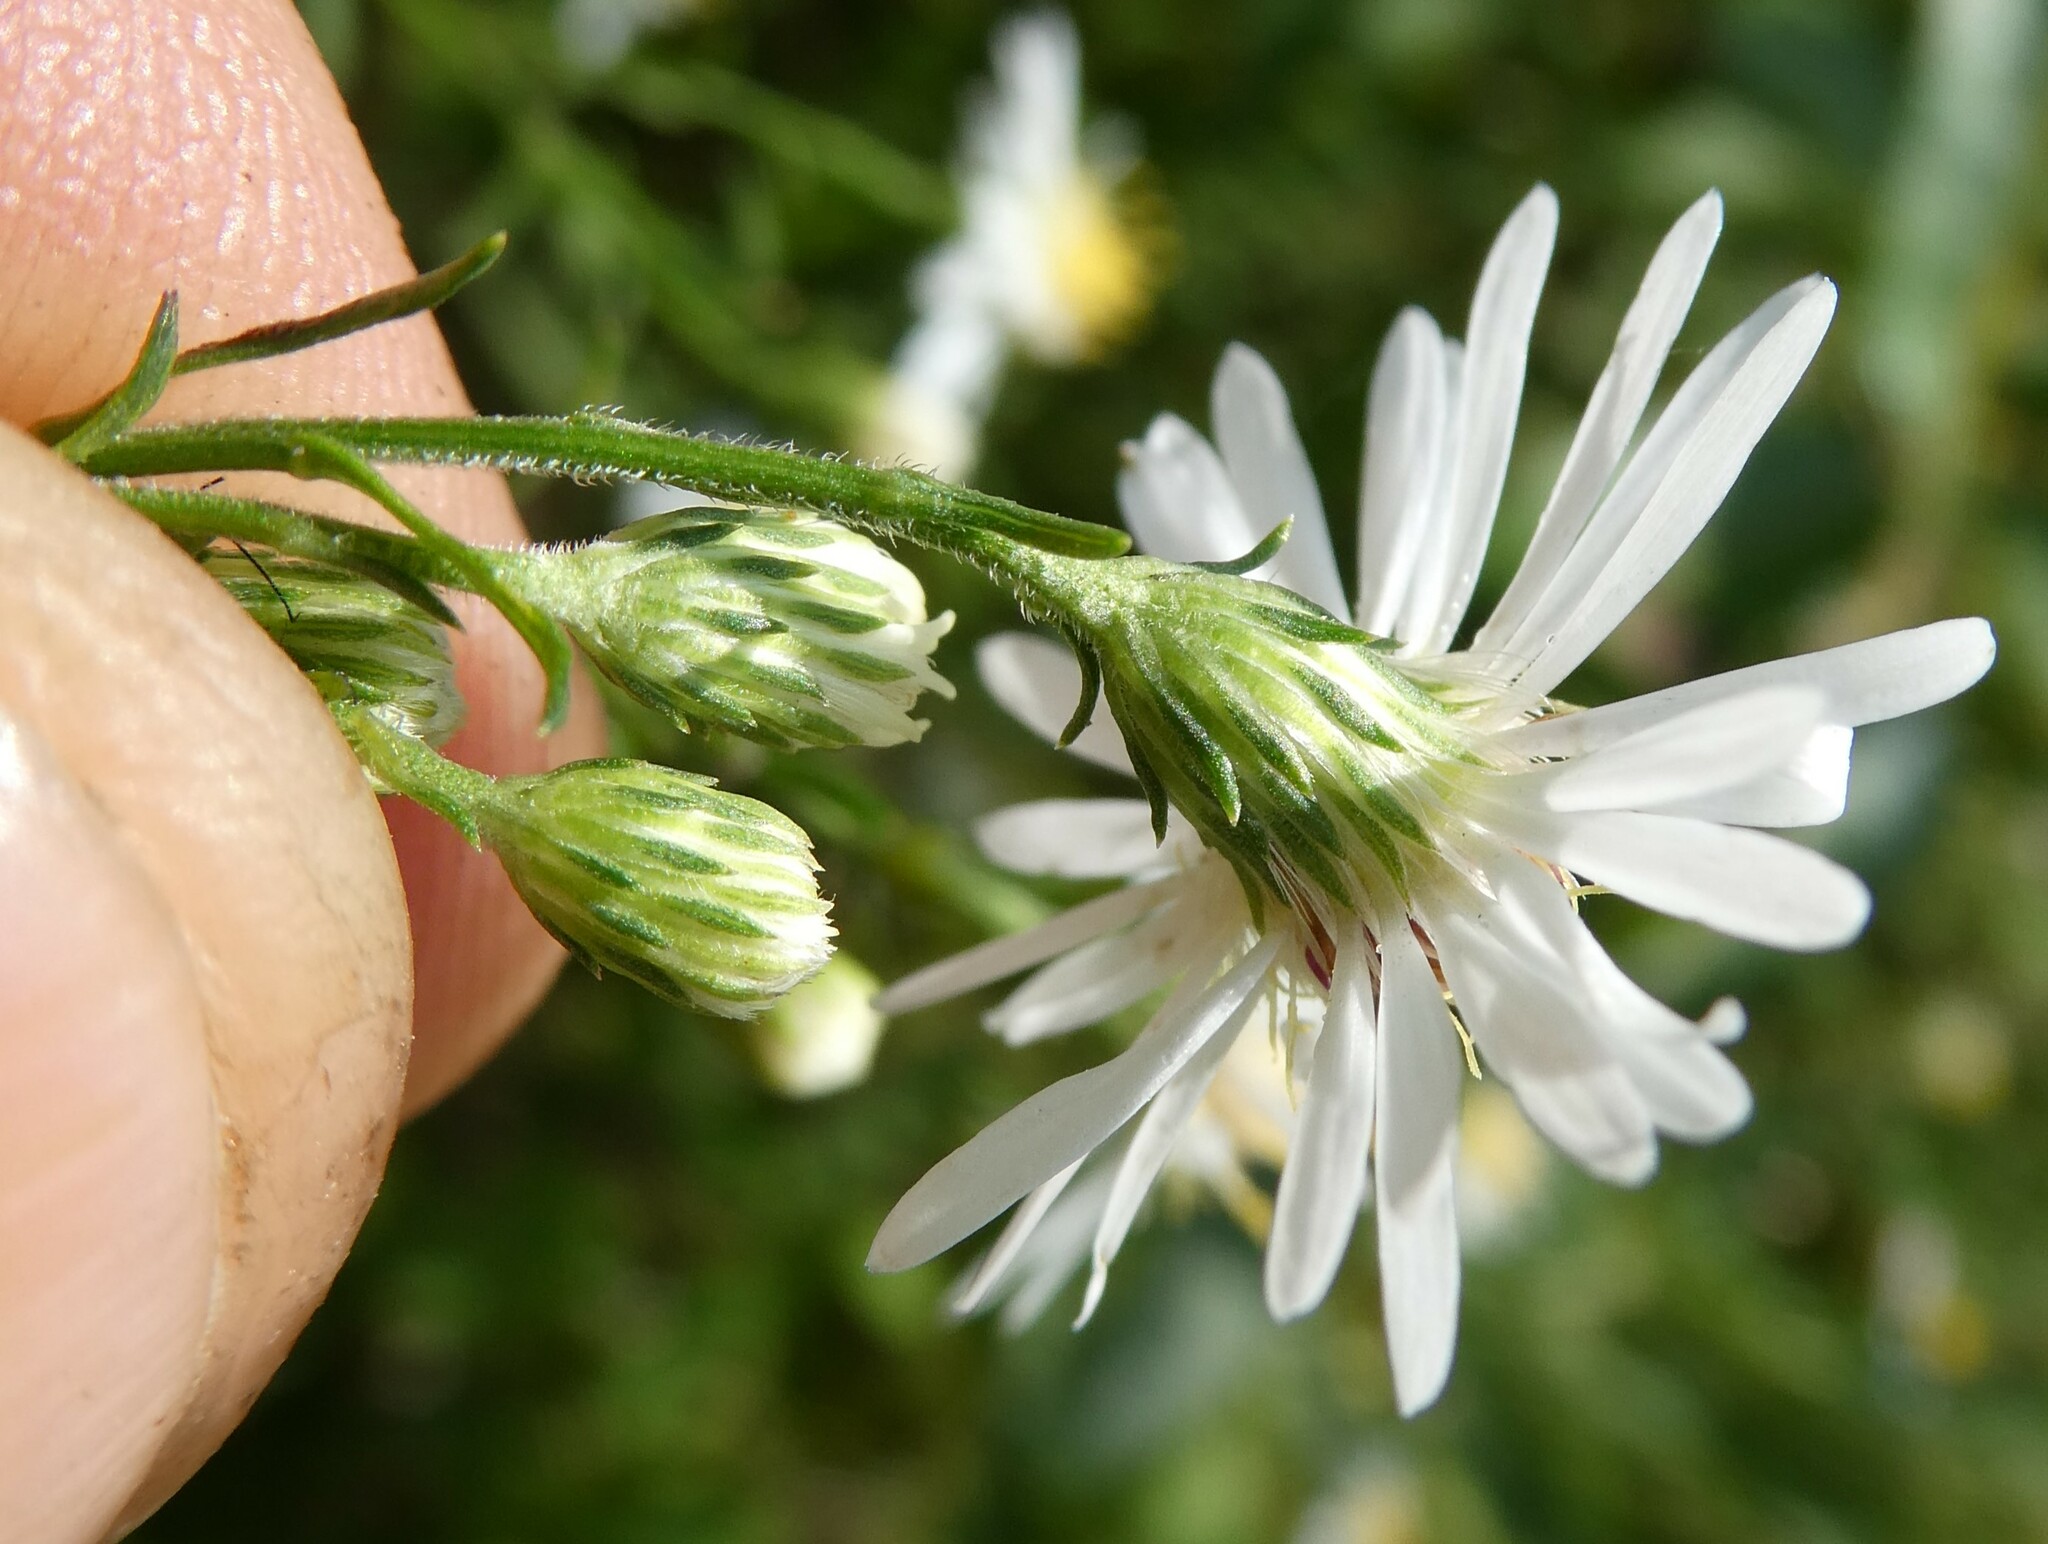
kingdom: Plantae
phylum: Tracheophyta
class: Magnoliopsida
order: Asterales
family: Asteraceae
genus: Symphyotrichum
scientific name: Symphyotrichum lanceolatum
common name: Panicled aster
